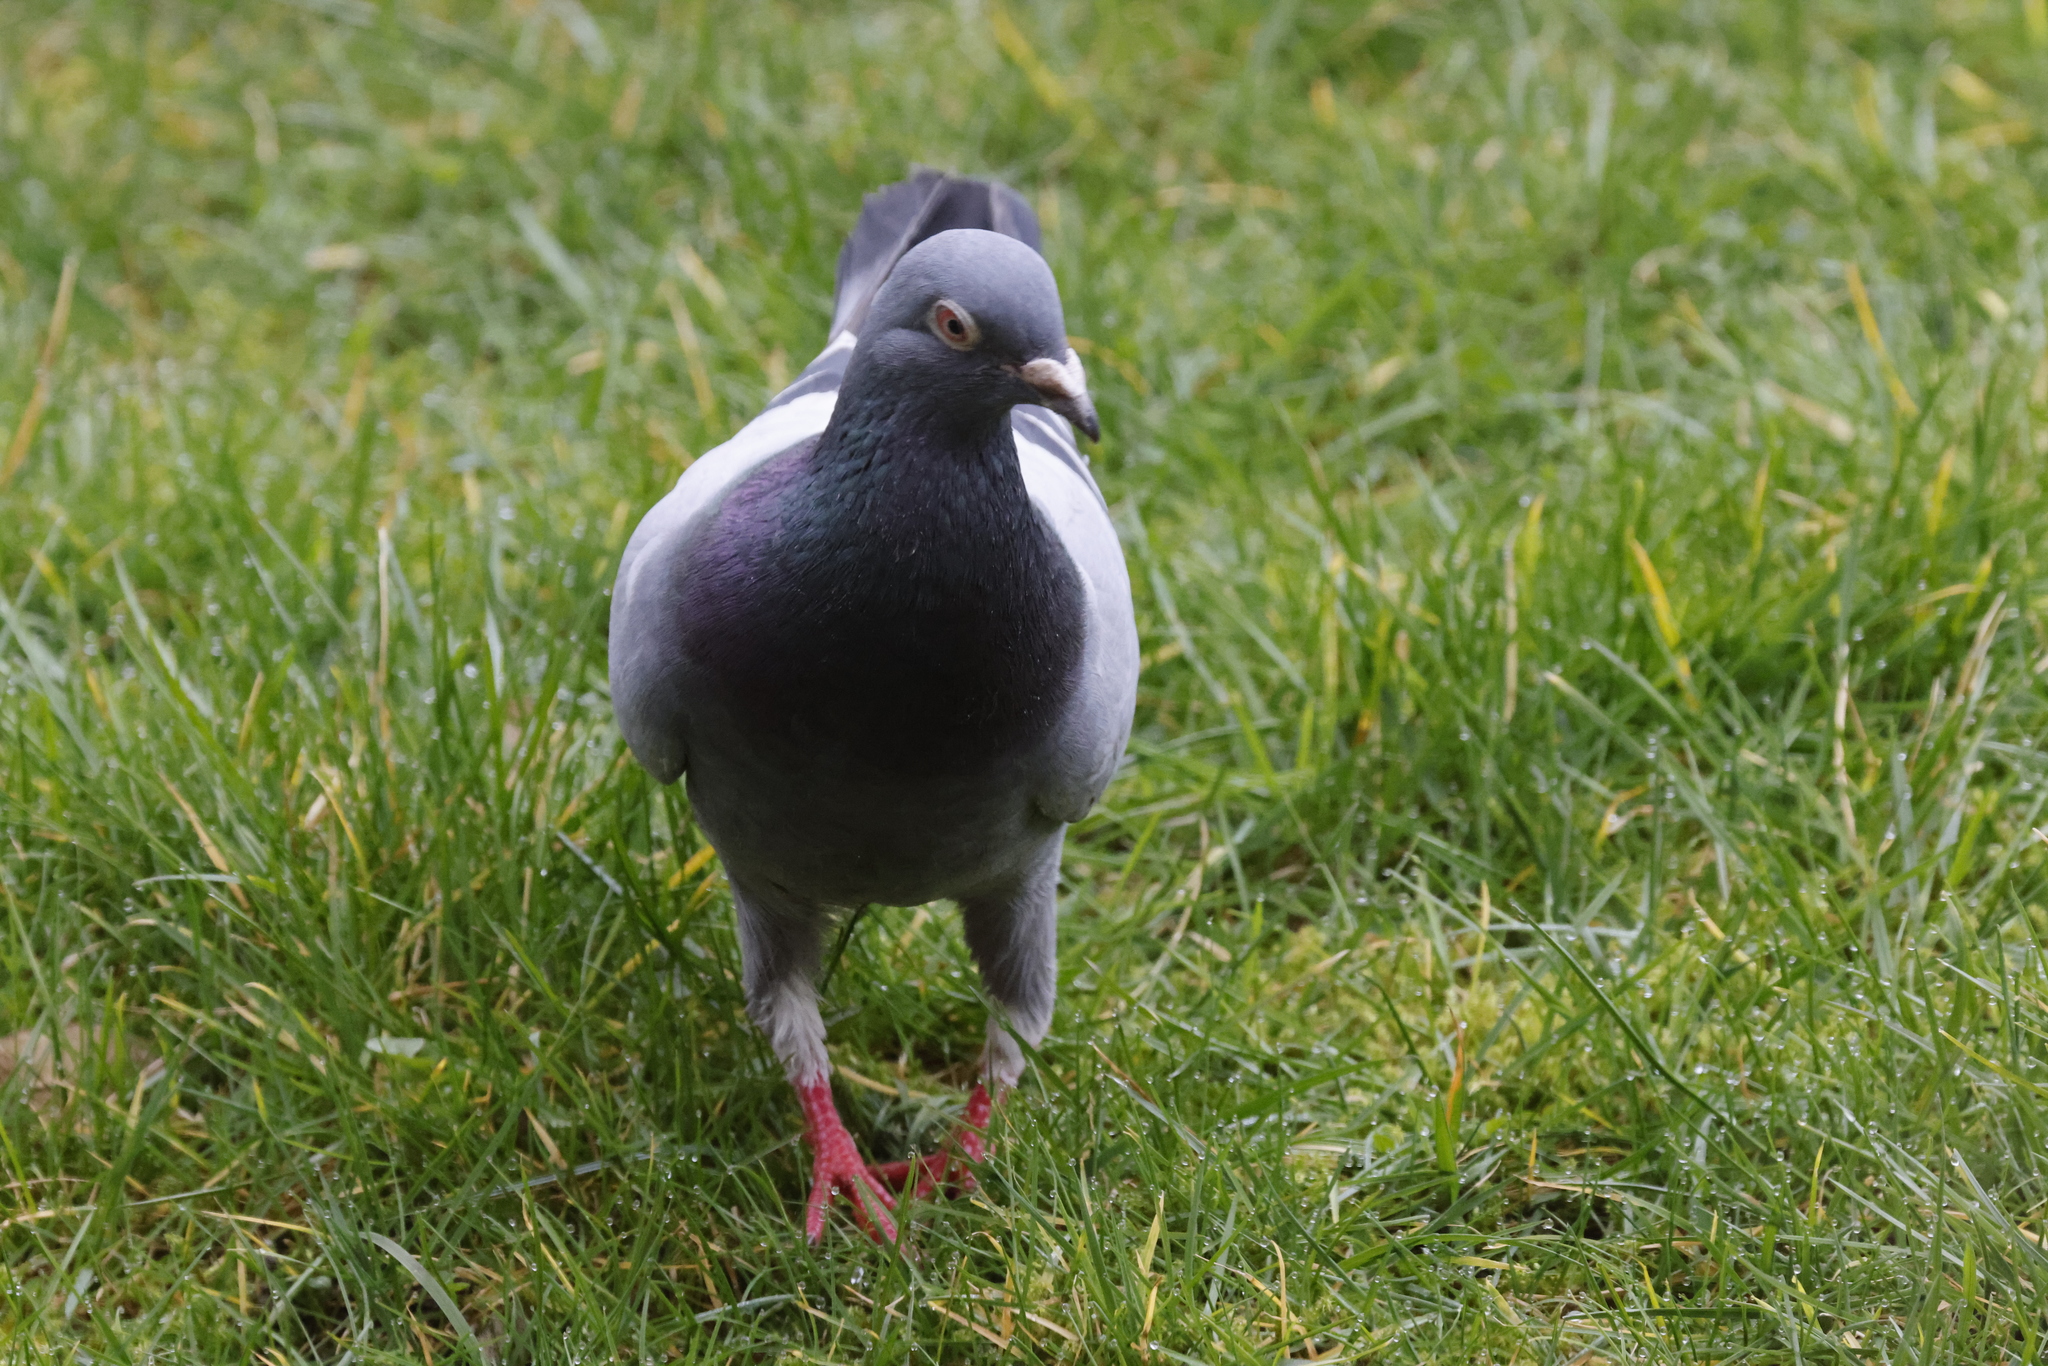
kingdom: Animalia
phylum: Chordata
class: Aves
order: Columbiformes
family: Columbidae
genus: Columba
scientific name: Columba livia
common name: Rock pigeon
